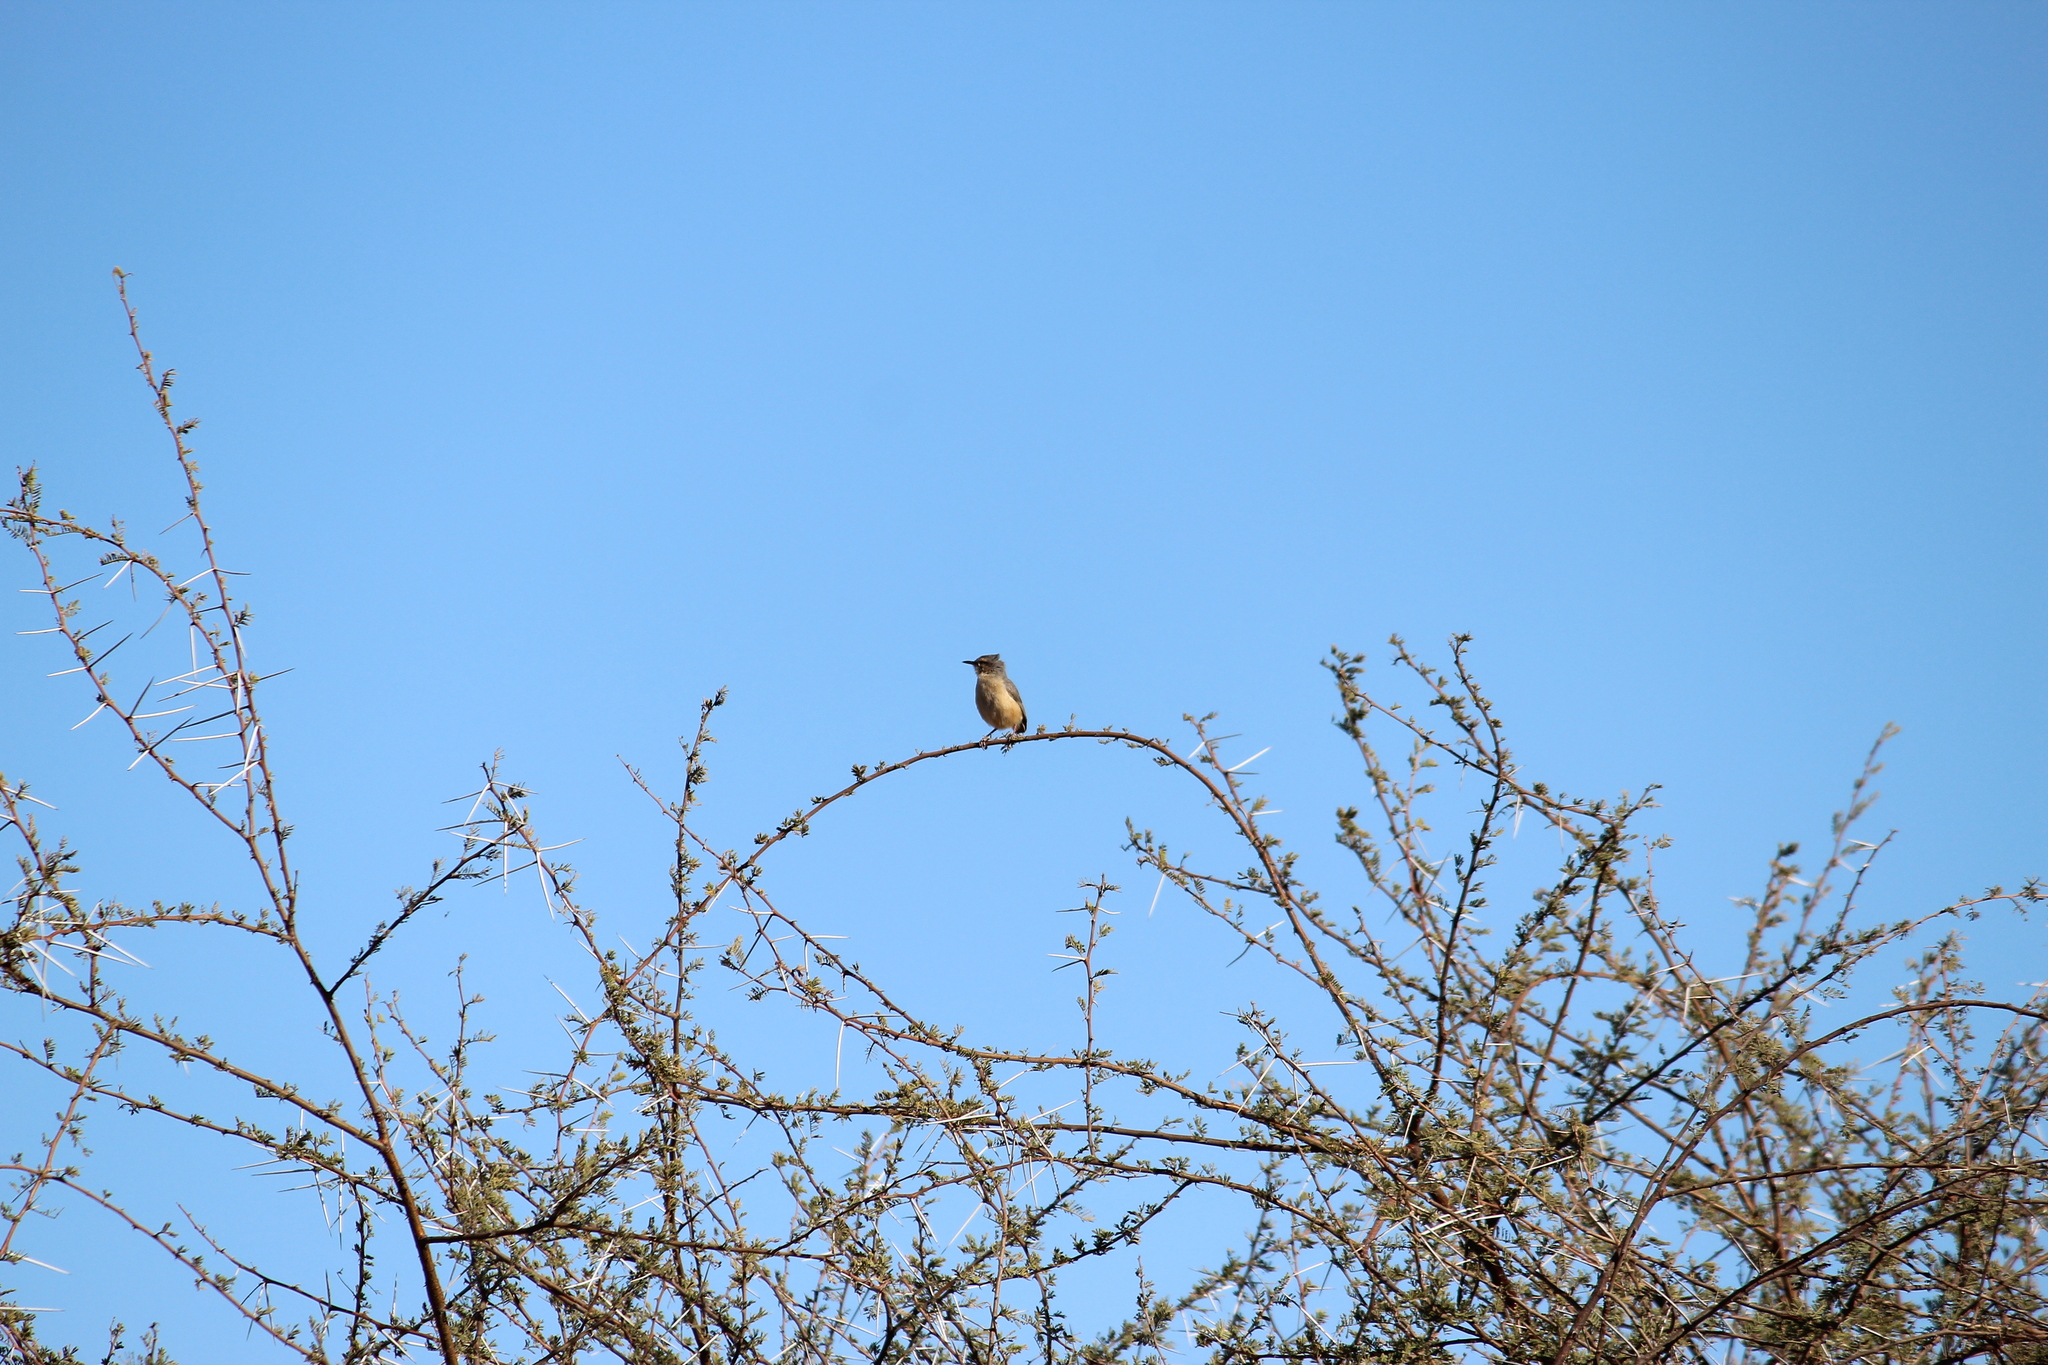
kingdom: Animalia
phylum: Chordata
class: Aves
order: Passeriformes
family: Macrosphenidae
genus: Sylvietta
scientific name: Sylvietta rufescens
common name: Long-billed crombec
